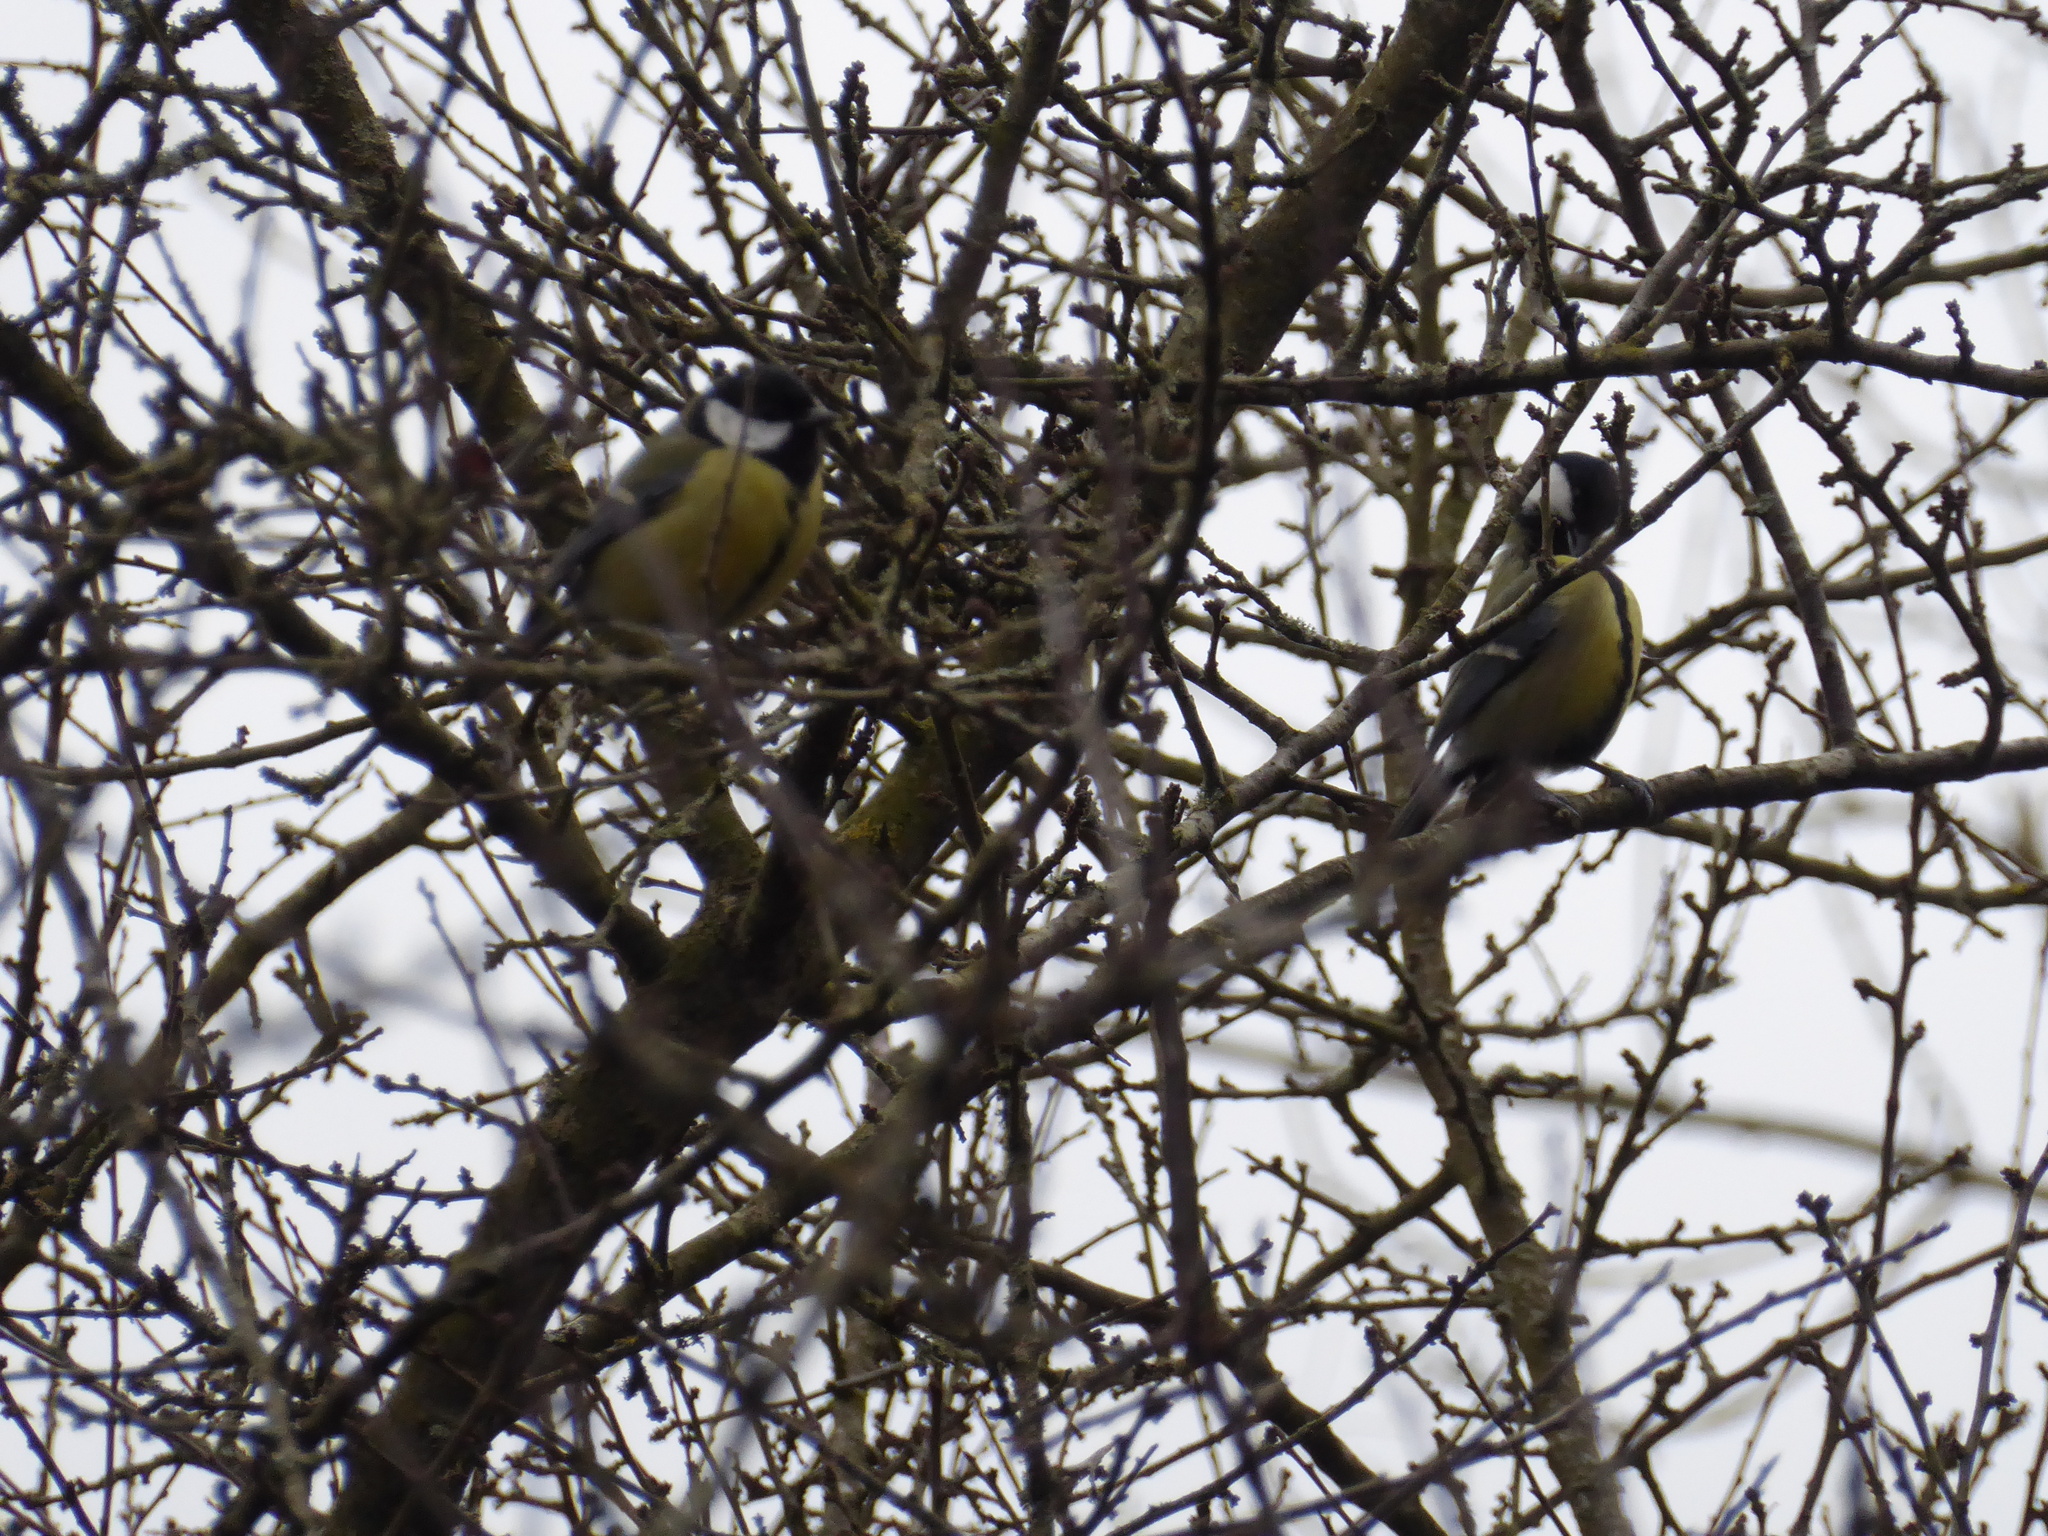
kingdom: Animalia
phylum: Chordata
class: Aves
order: Passeriformes
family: Paridae
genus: Parus
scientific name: Parus major
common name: Great tit
